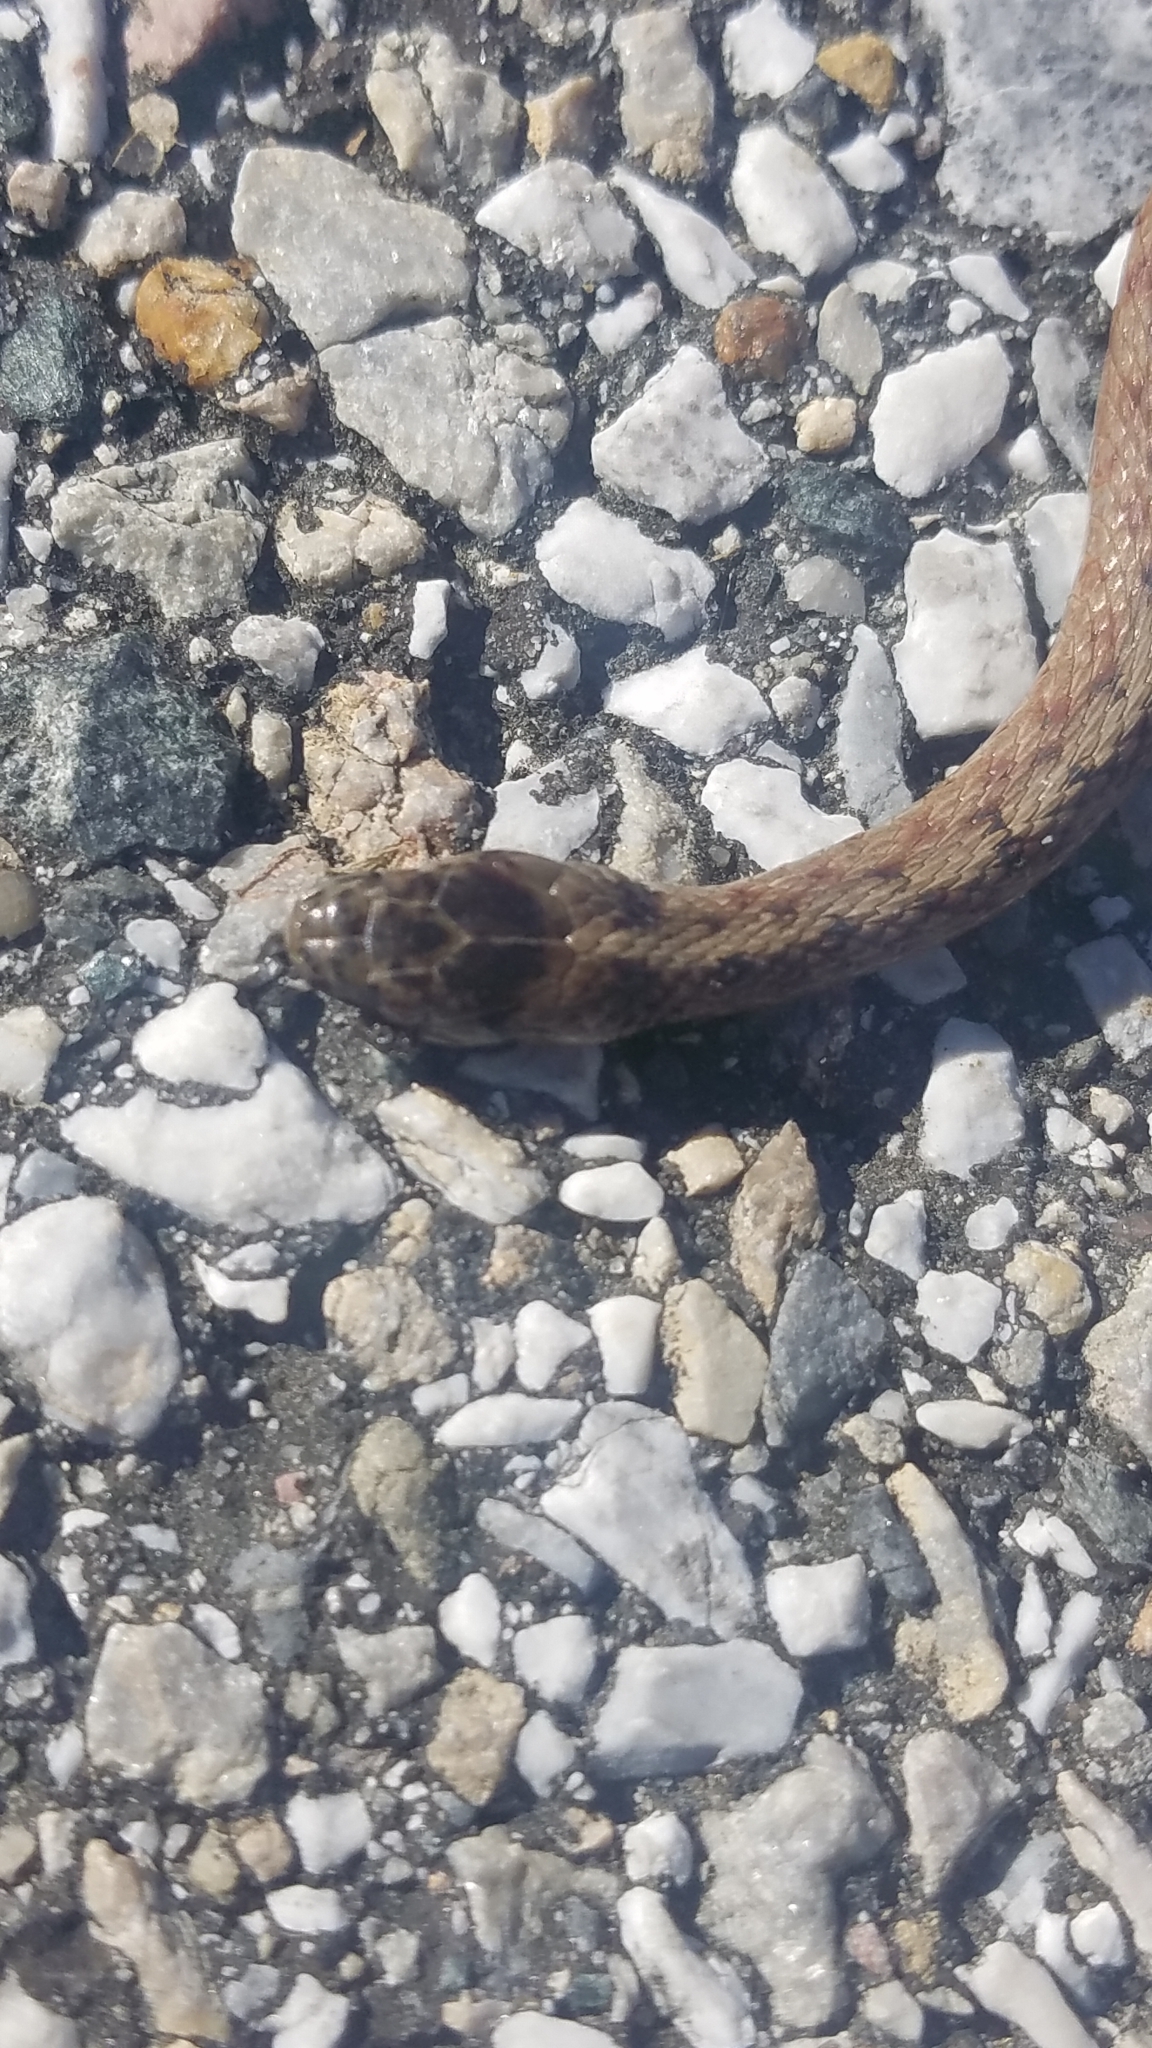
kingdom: Animalia
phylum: Chordata
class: Squamata
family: Colubridae
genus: Storeria
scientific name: Storeria dekayi
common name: (dekay’s) brown snake
